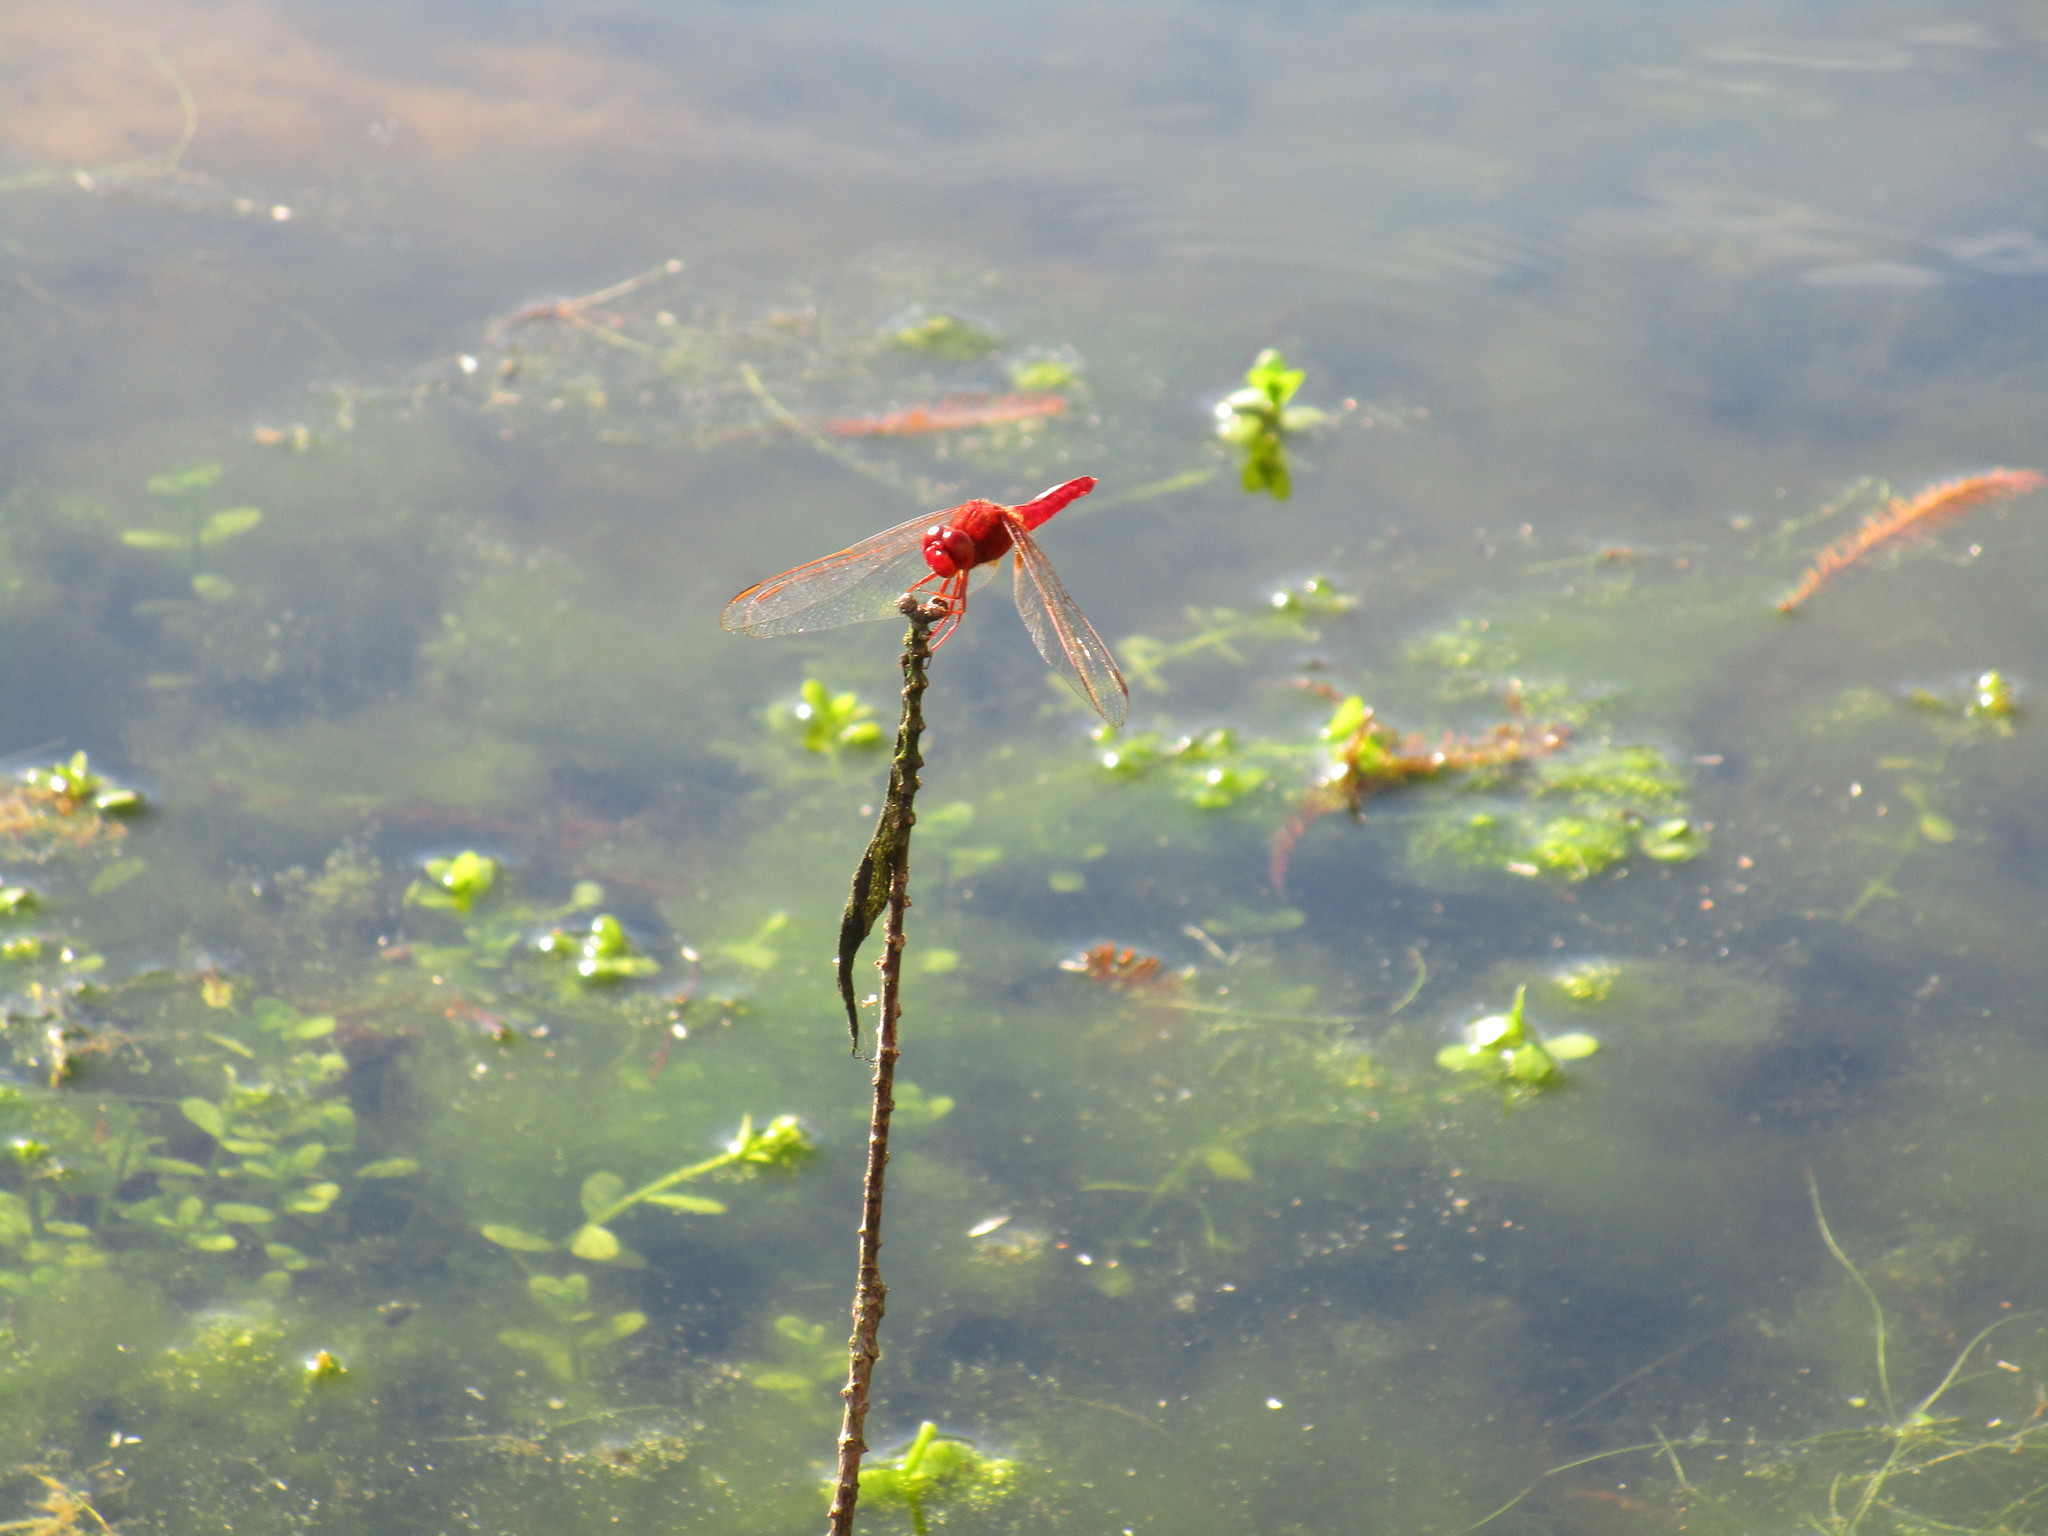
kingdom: Animalia
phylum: Arthropoda
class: Insecta
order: Odonata
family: Libellulidae
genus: Crocothemis
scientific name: Crocothemis servilia
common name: Scarlet skimmer
